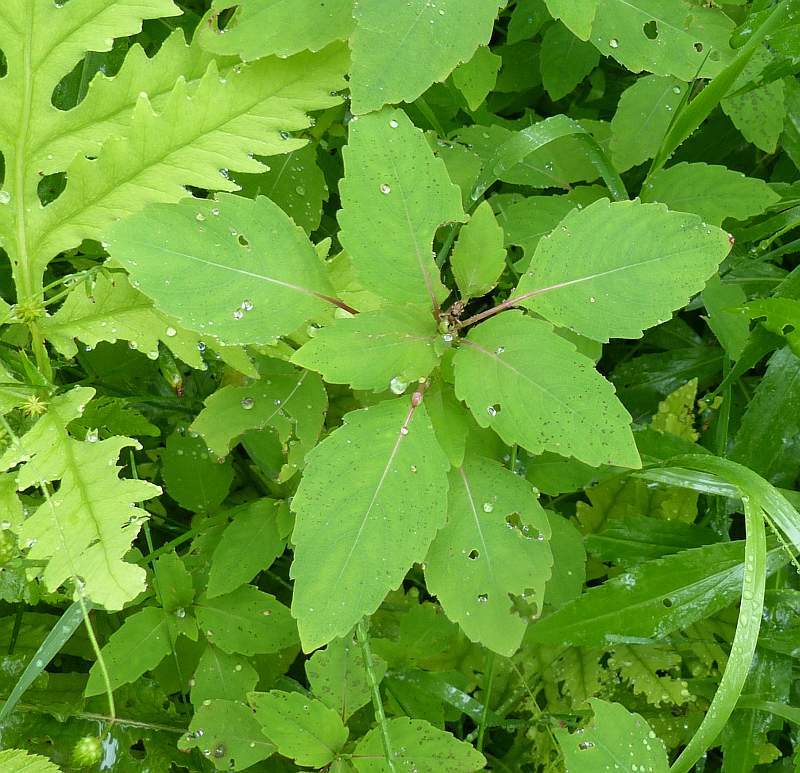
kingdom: Plantae
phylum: Tracheophyta
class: Magnoliopsida
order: Ericales
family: Balsaminaceae
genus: Impatiens
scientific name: Impatiens capensis
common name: Orange balsam
